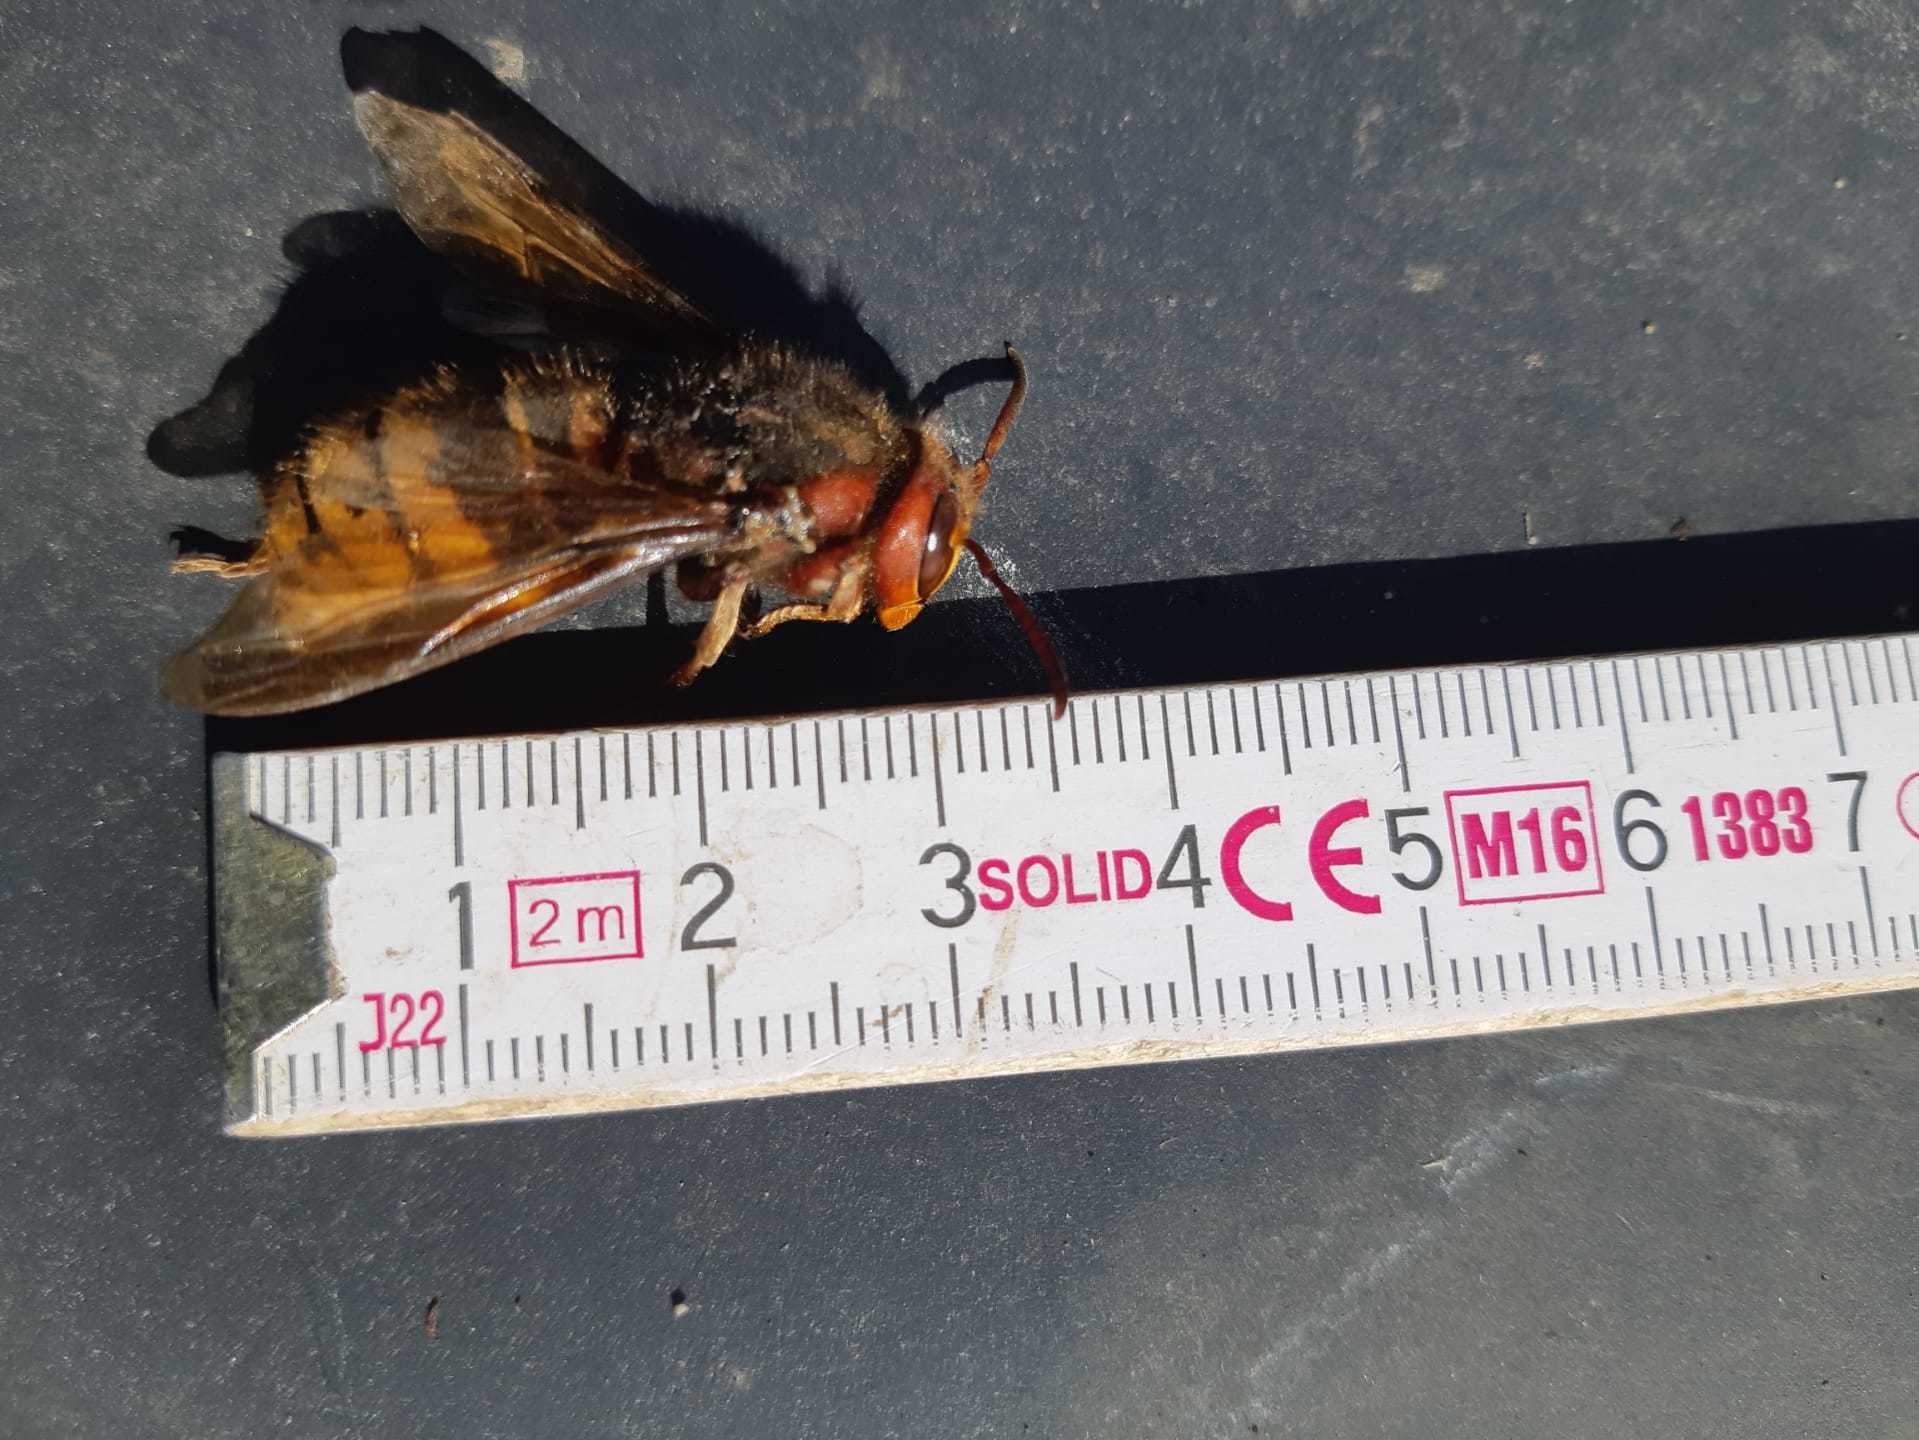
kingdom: Animalia
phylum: Arthropoda
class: Insecta
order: Hymenoptera
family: Vespidae
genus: Vespa
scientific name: Vespa crabro
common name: Hornet
